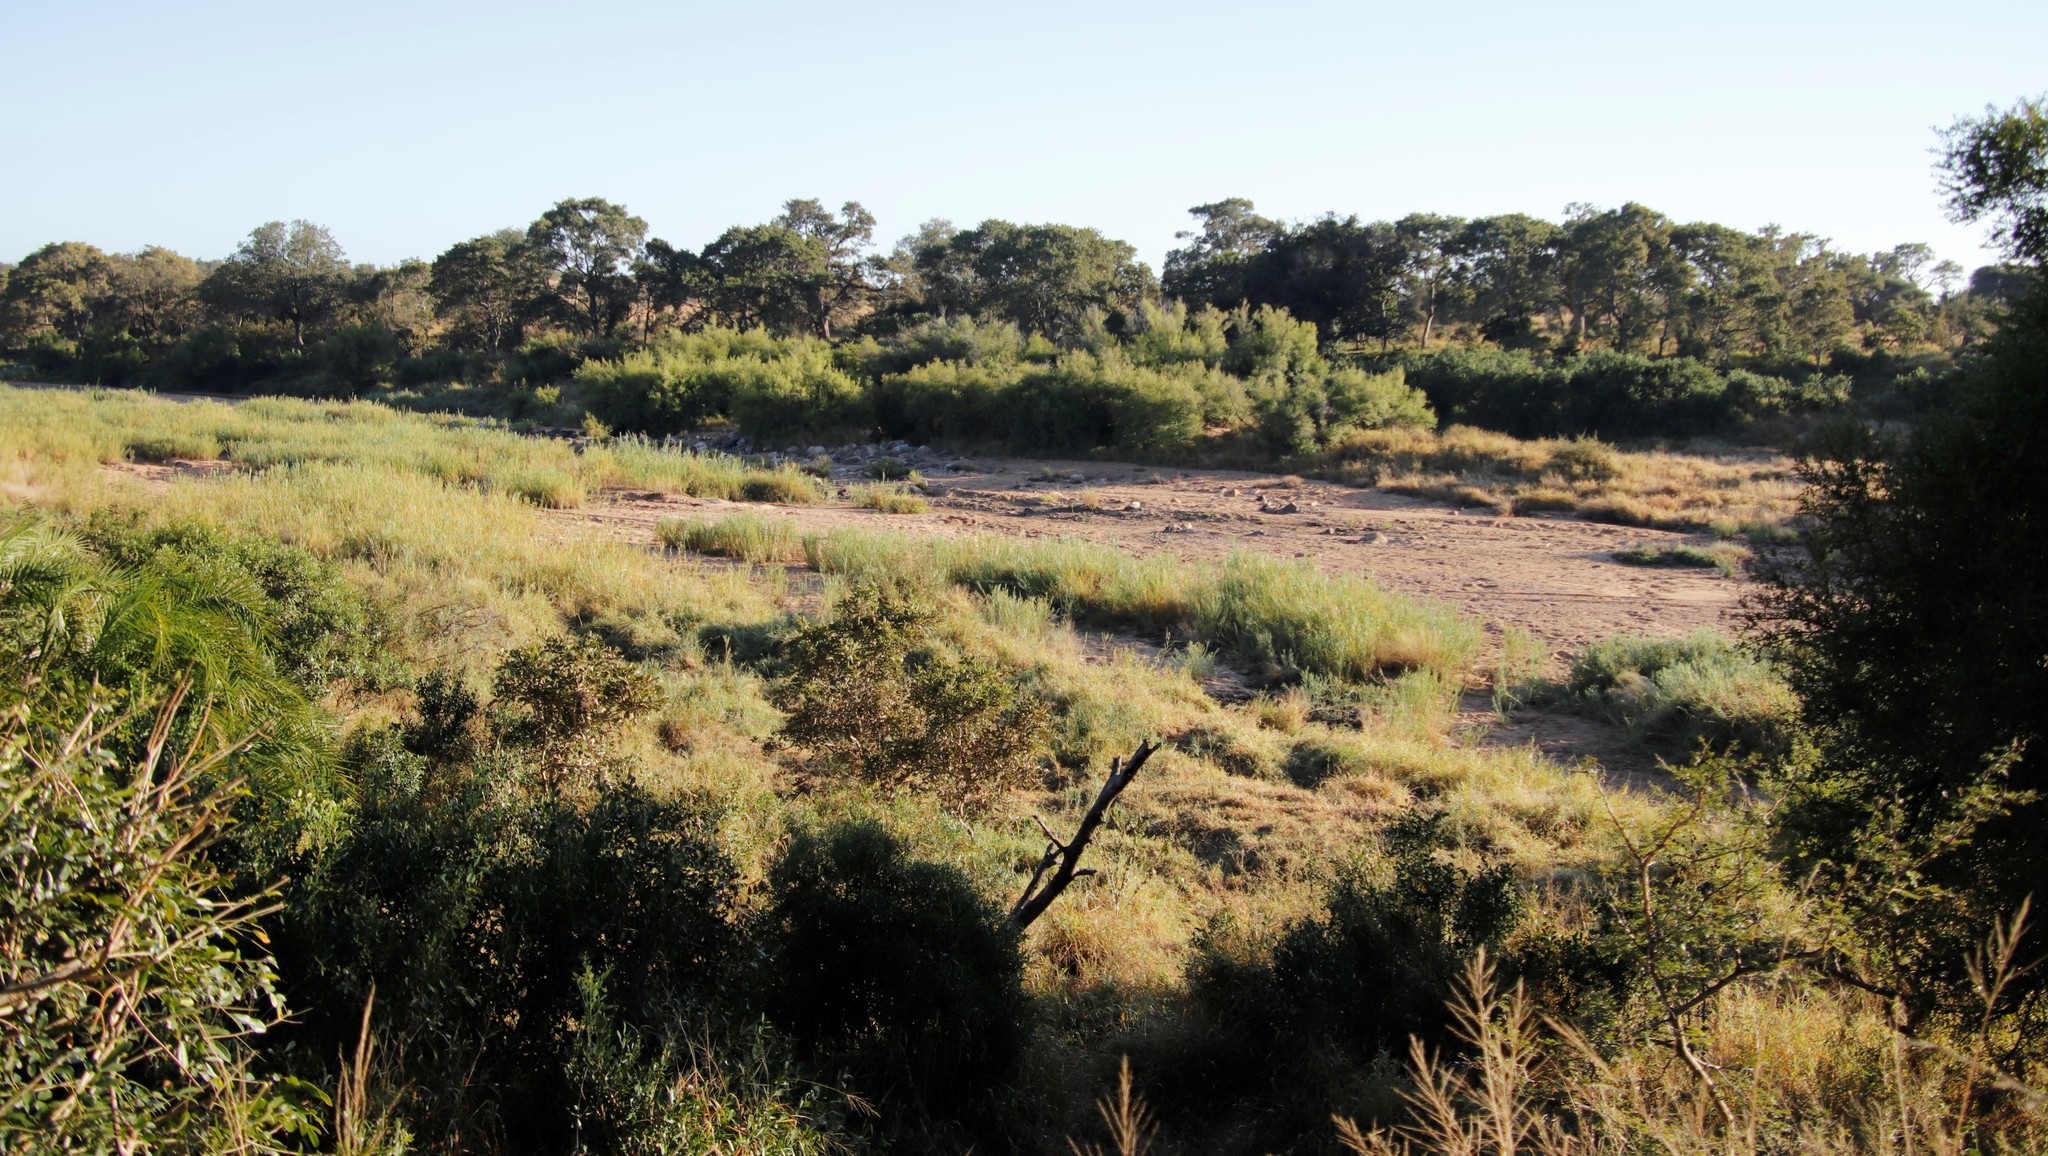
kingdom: Plantae
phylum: Tracheophyta
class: Liliopsida
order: Poales
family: Poaceae
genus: Phragmites
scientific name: Phragmites mauritianus
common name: Reed grass
